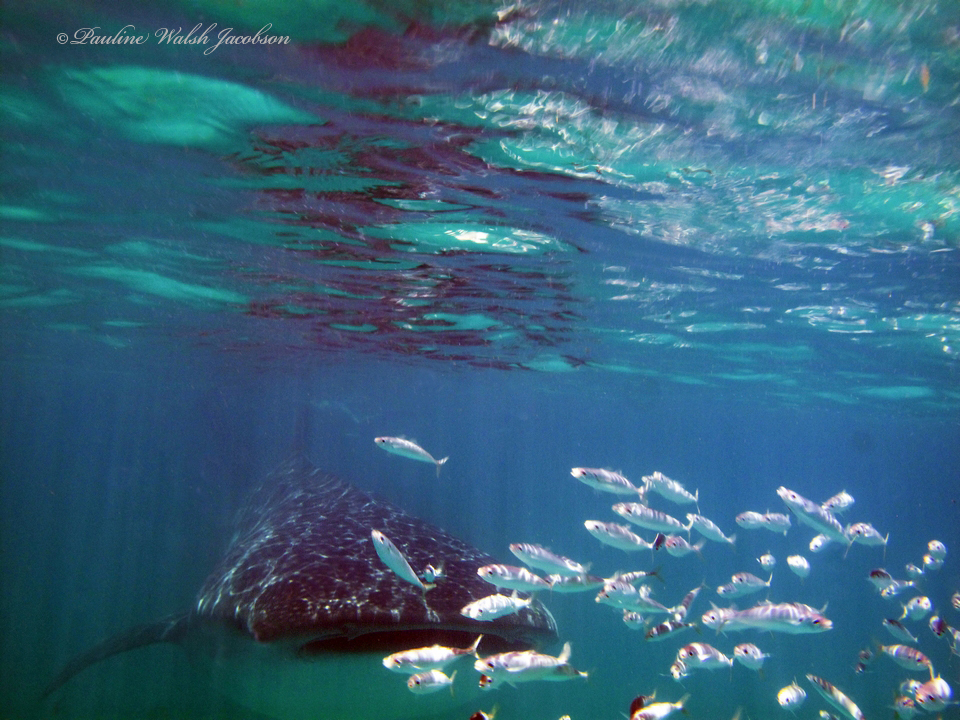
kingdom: Animalia
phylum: Chordata
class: Elasmobranchii
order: Orectolobiformes
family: Rhincodontidae
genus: Rhincodon
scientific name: Rhincodon typus
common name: Whale shark
